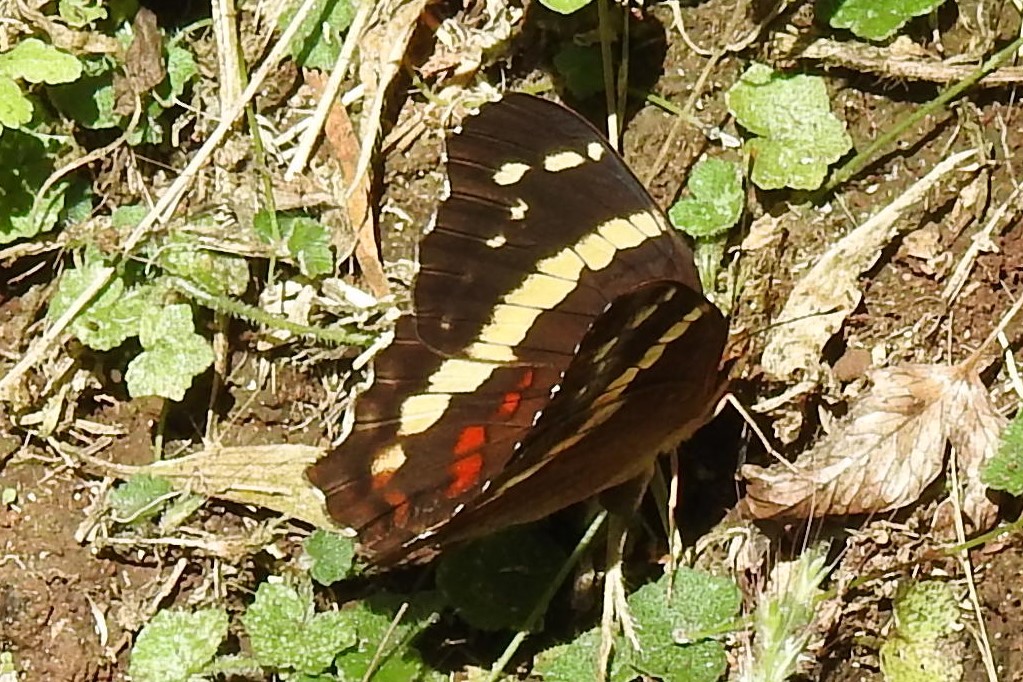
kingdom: Animalia
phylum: Arthropoda
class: Insecta
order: Lepidoptera
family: Nymphalidae
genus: Anartia
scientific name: Anartia fatima
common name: Banded peacock
